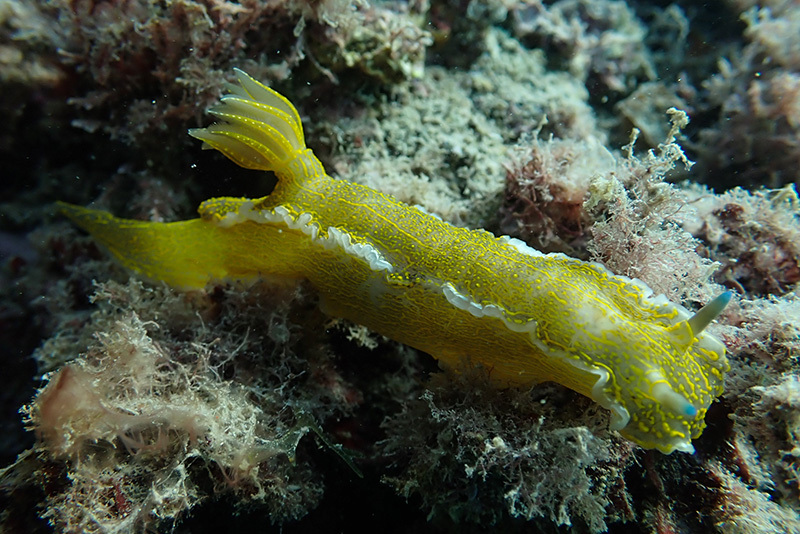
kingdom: Animalia
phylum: Mollusca
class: Gastropoda
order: Nudibranchia
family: Chromodorididae
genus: Felimare
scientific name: Felimare picta
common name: Giant doris
